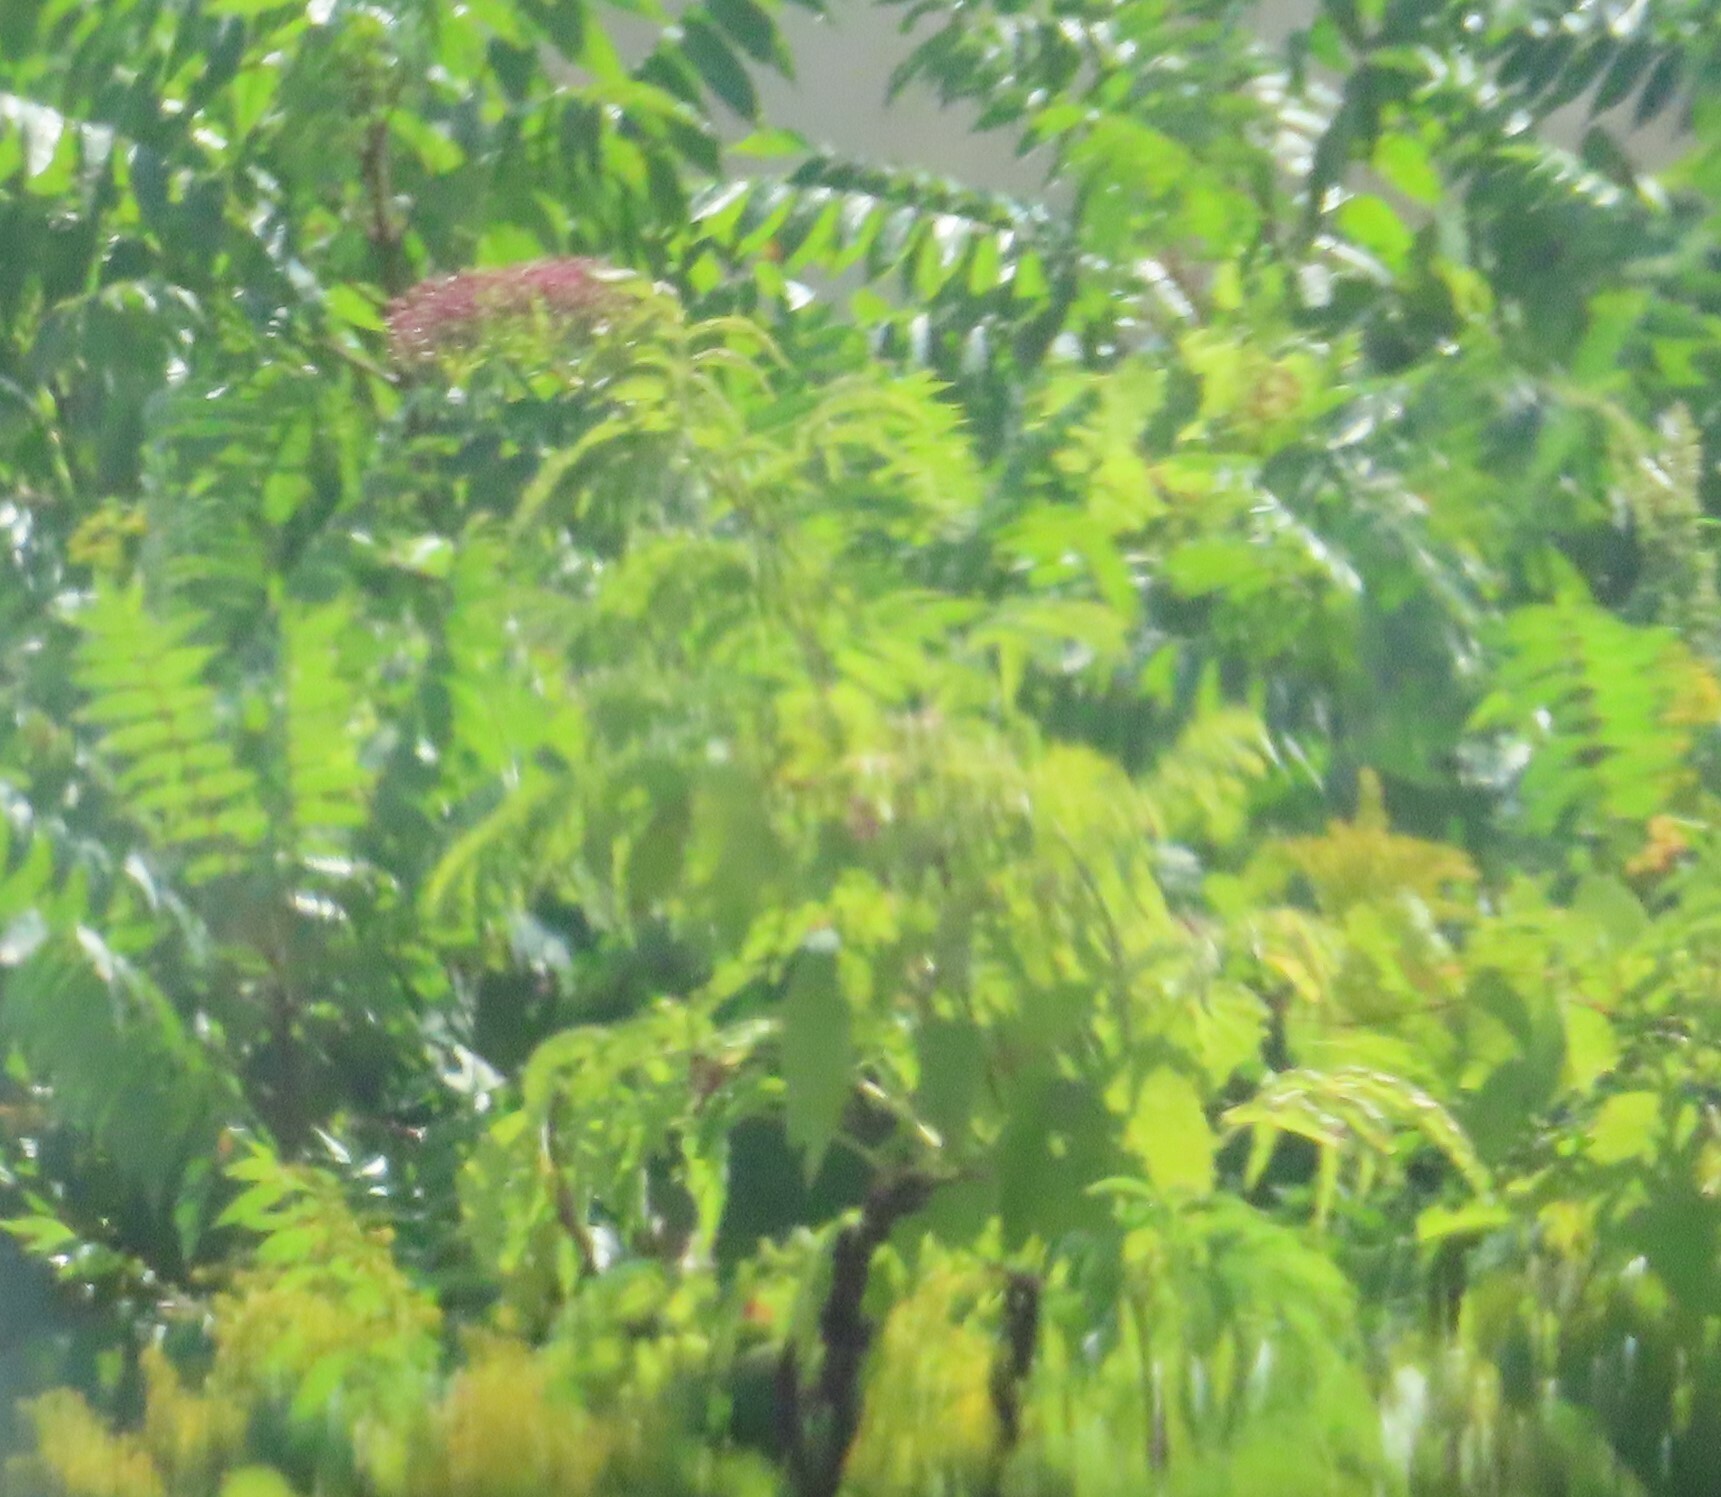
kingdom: Plantae
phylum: Tracheophyta
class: Magnoliopsida
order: Dipsacales
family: Viburnaceae
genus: Sambucus
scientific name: Sambucus canadensis
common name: American elder
